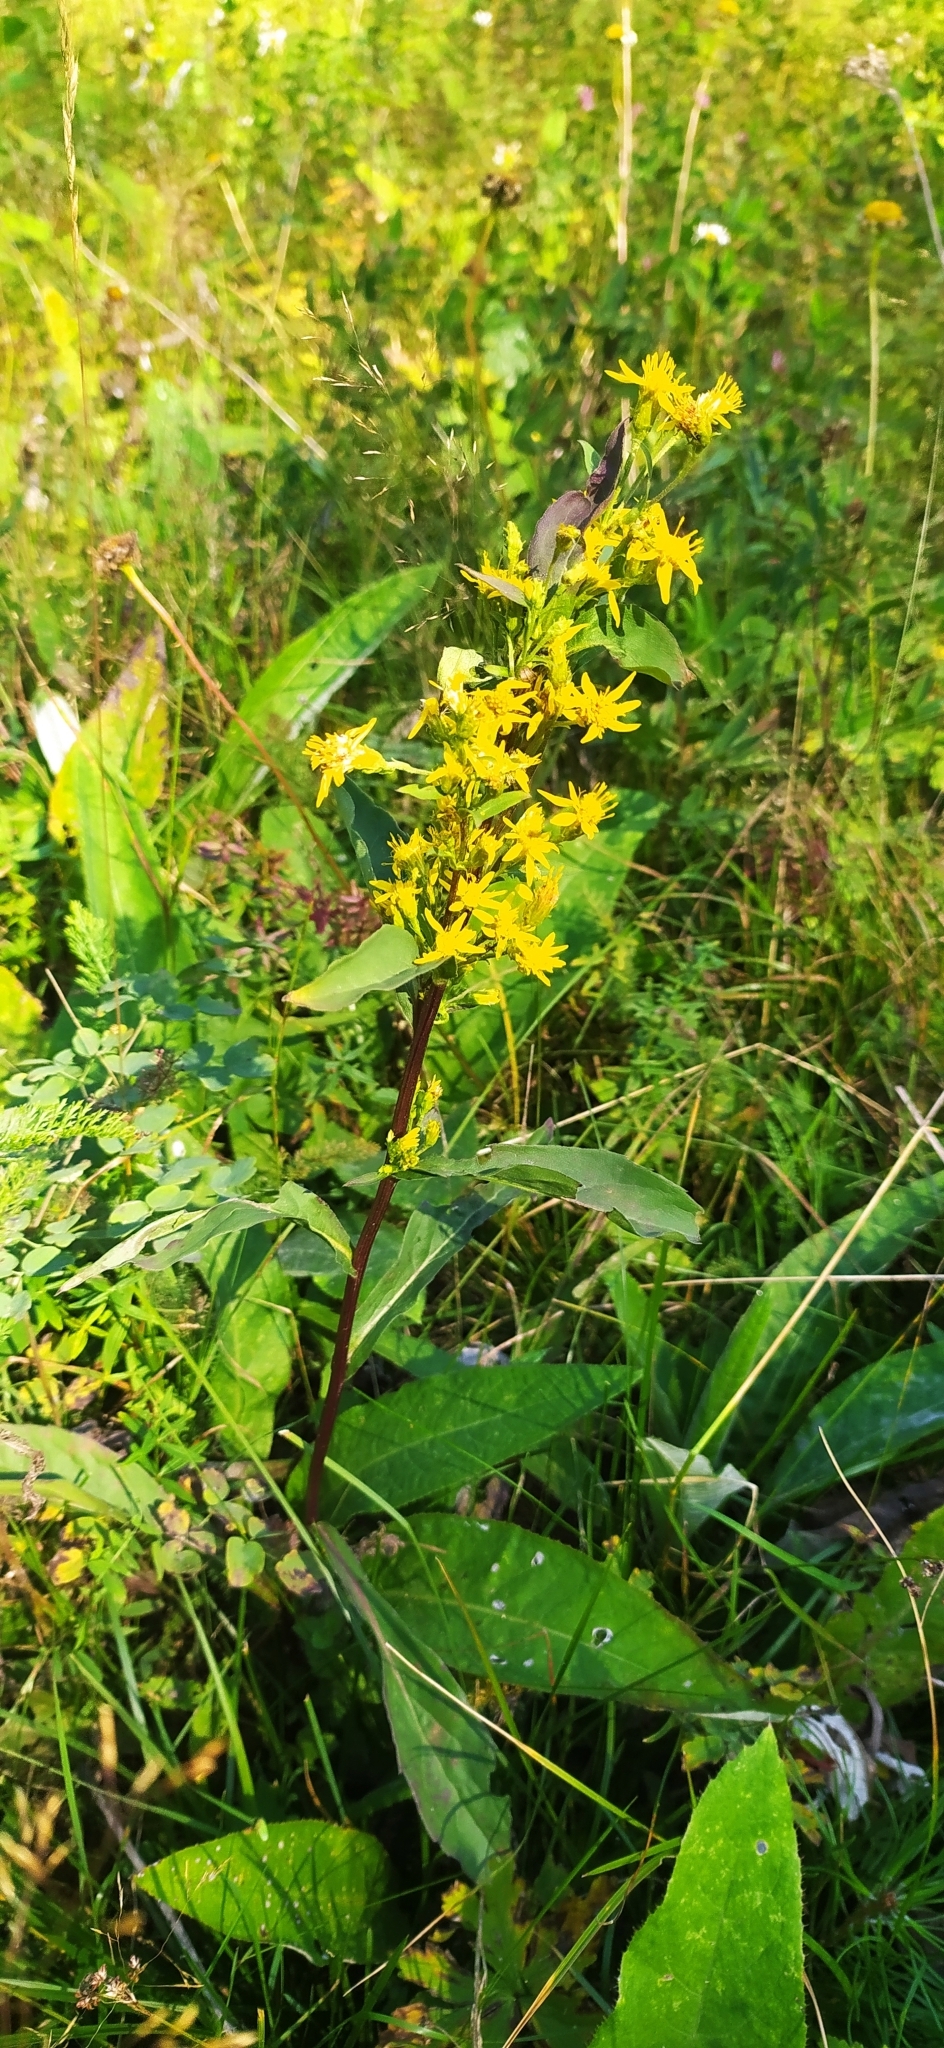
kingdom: Plantae
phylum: Tracheophyta
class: Magnoliopsida
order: Asterales
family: Asteraceae
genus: Solidago
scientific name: Solidago virgaurea
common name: Goldenrod
